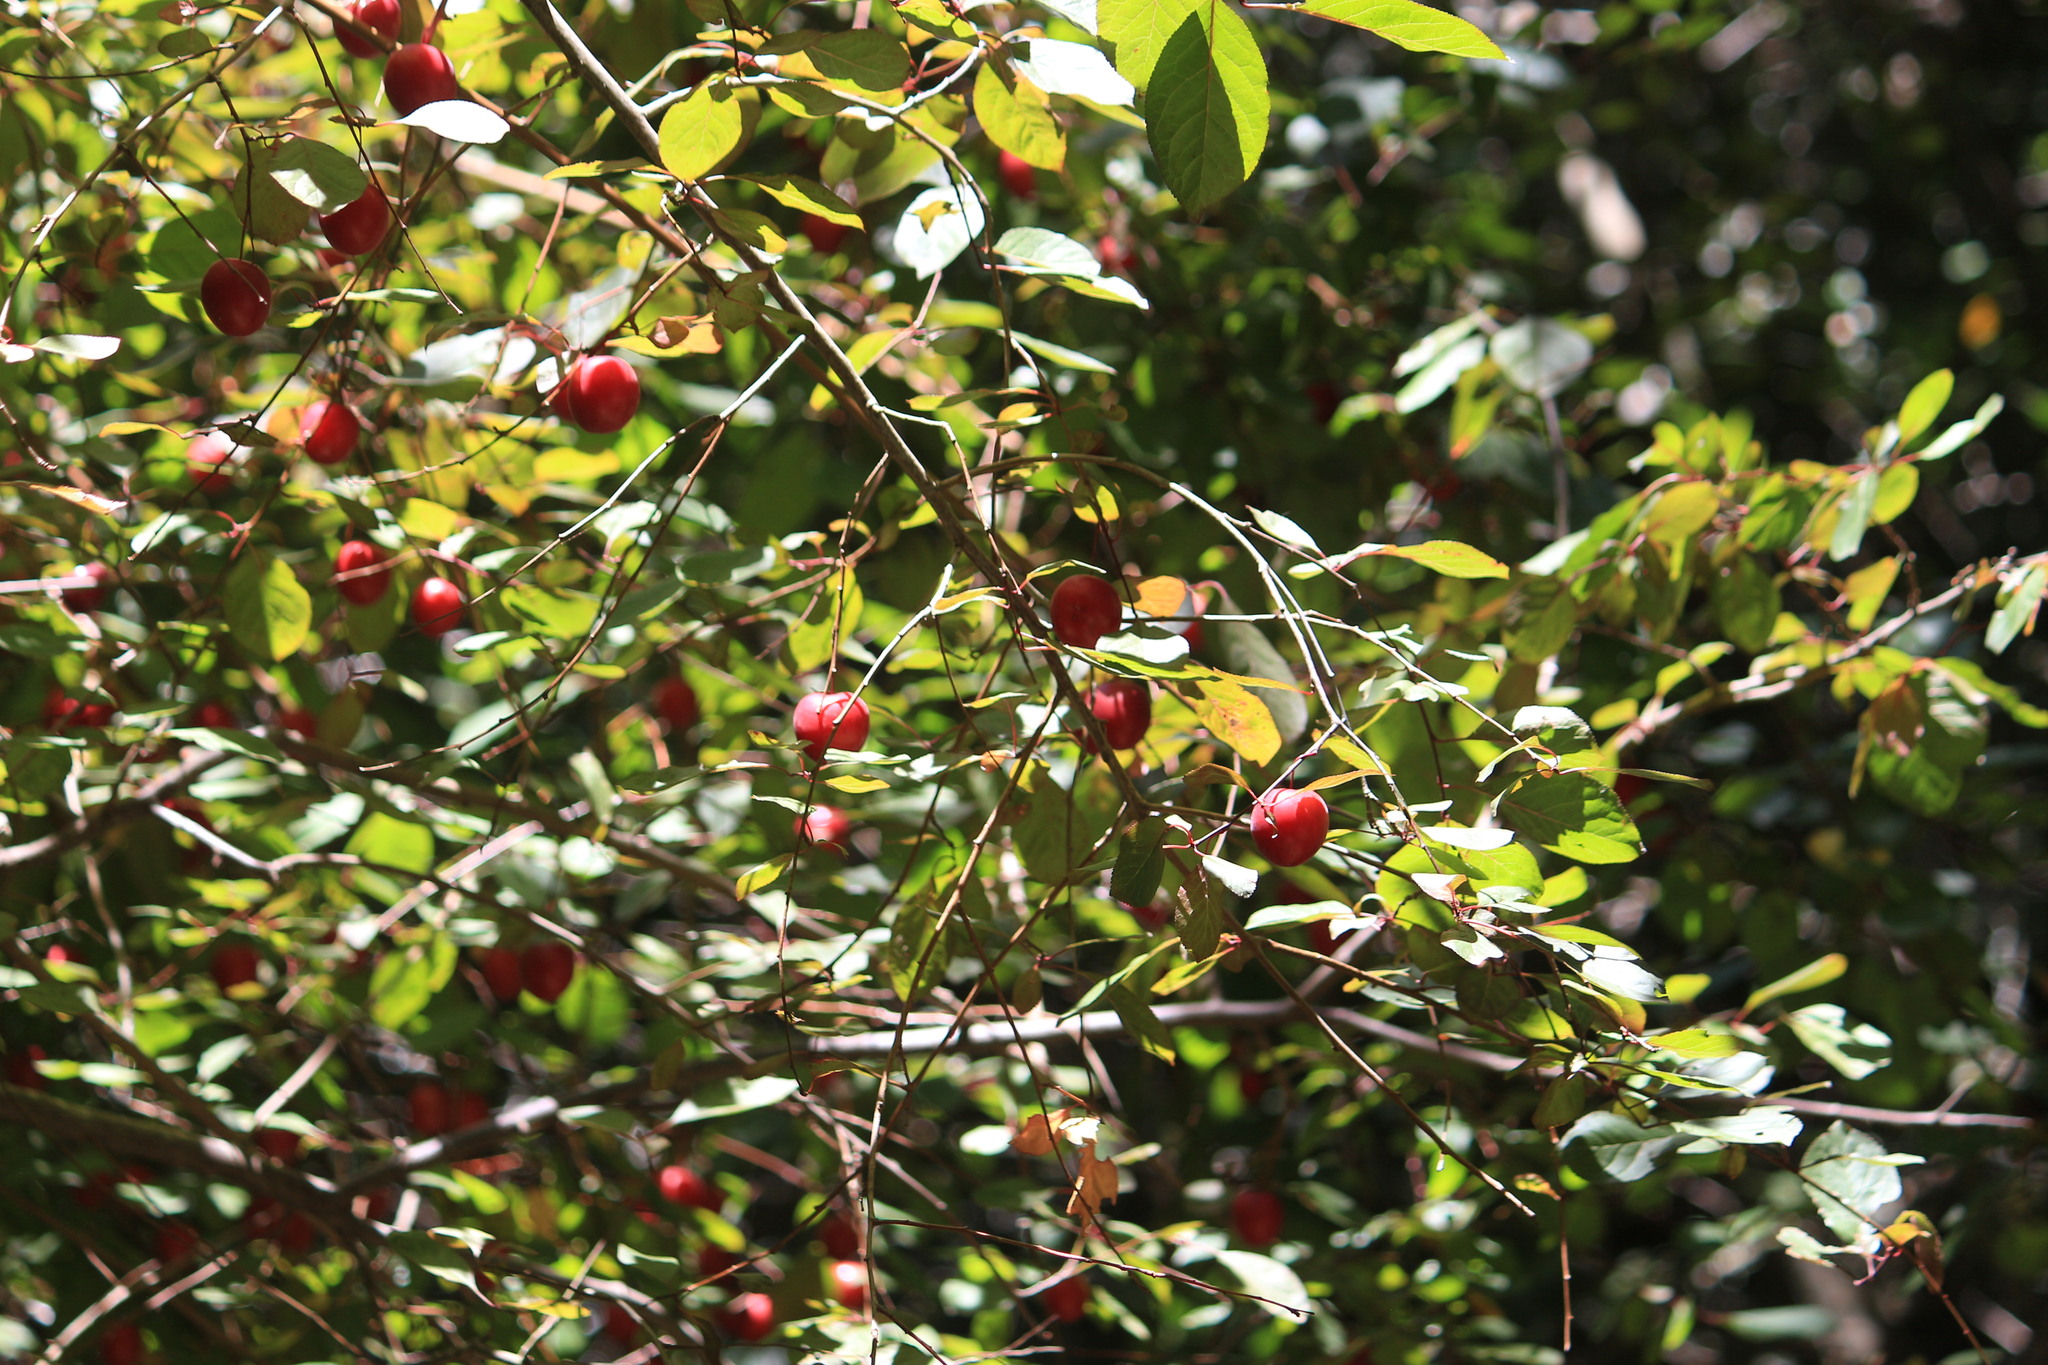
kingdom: Plantae
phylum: Tracheophyta
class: Magnoliopsida
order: Rosales
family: Rosaceae
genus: Prunus
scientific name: Prunus cerasifera
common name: Cherry plum
